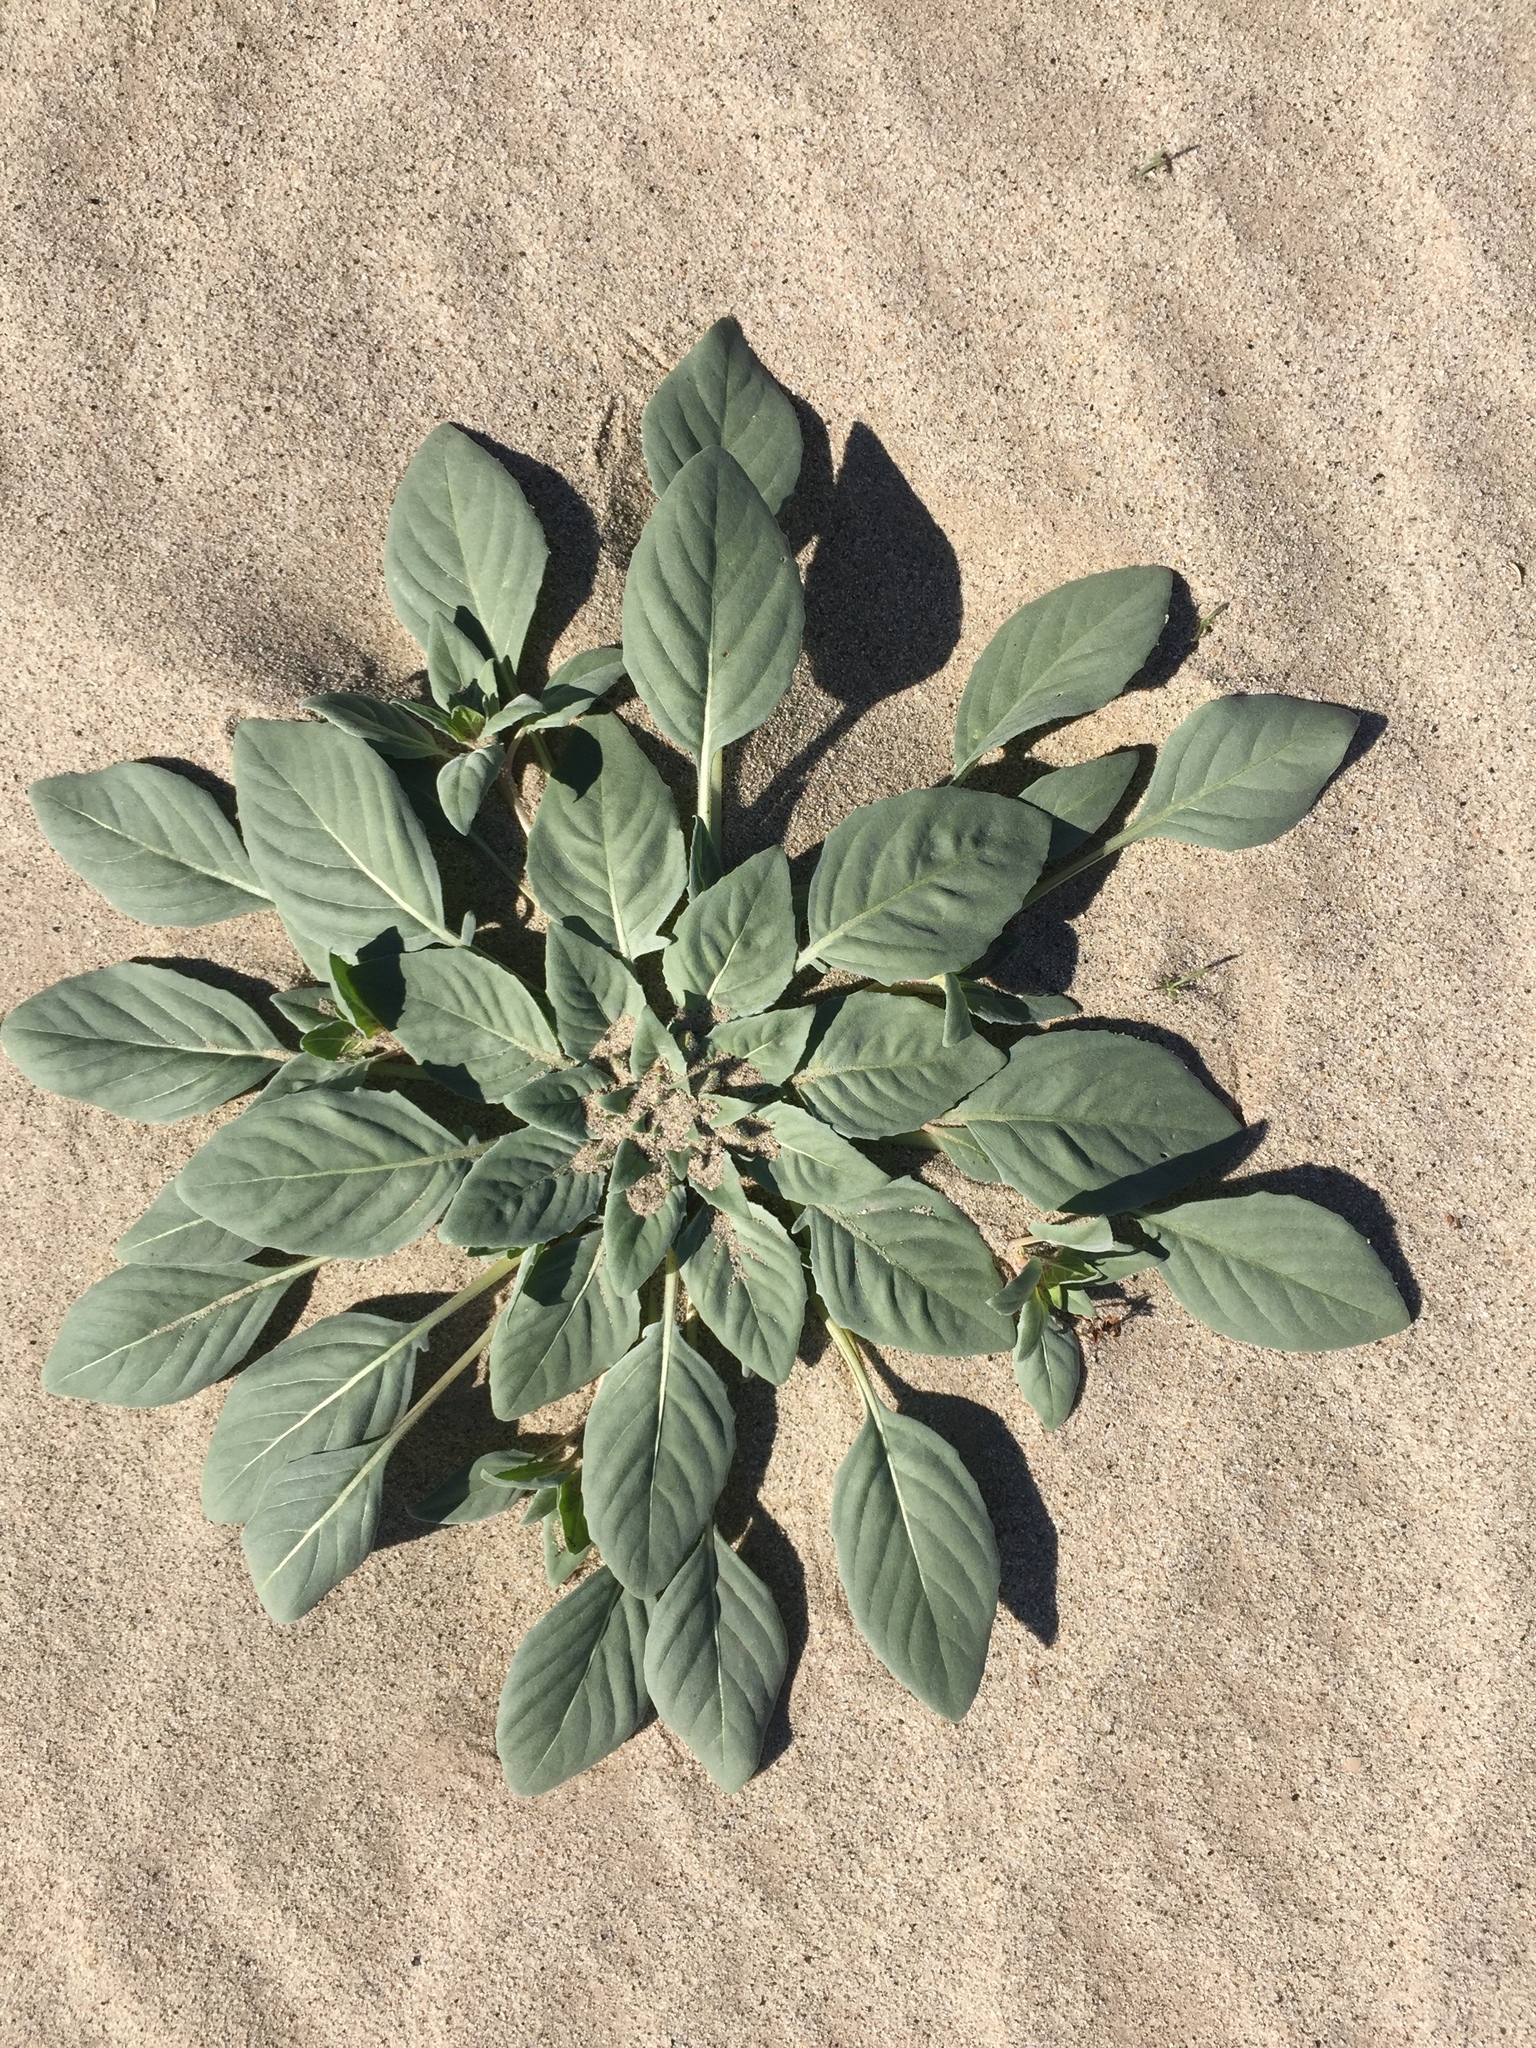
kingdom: Plantae
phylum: Tracheophyta
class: Magnoliopsida
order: Myrtales
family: Onagraceae
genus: Oenothera
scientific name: Oenothera deltoides
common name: Basket evening-primrose
